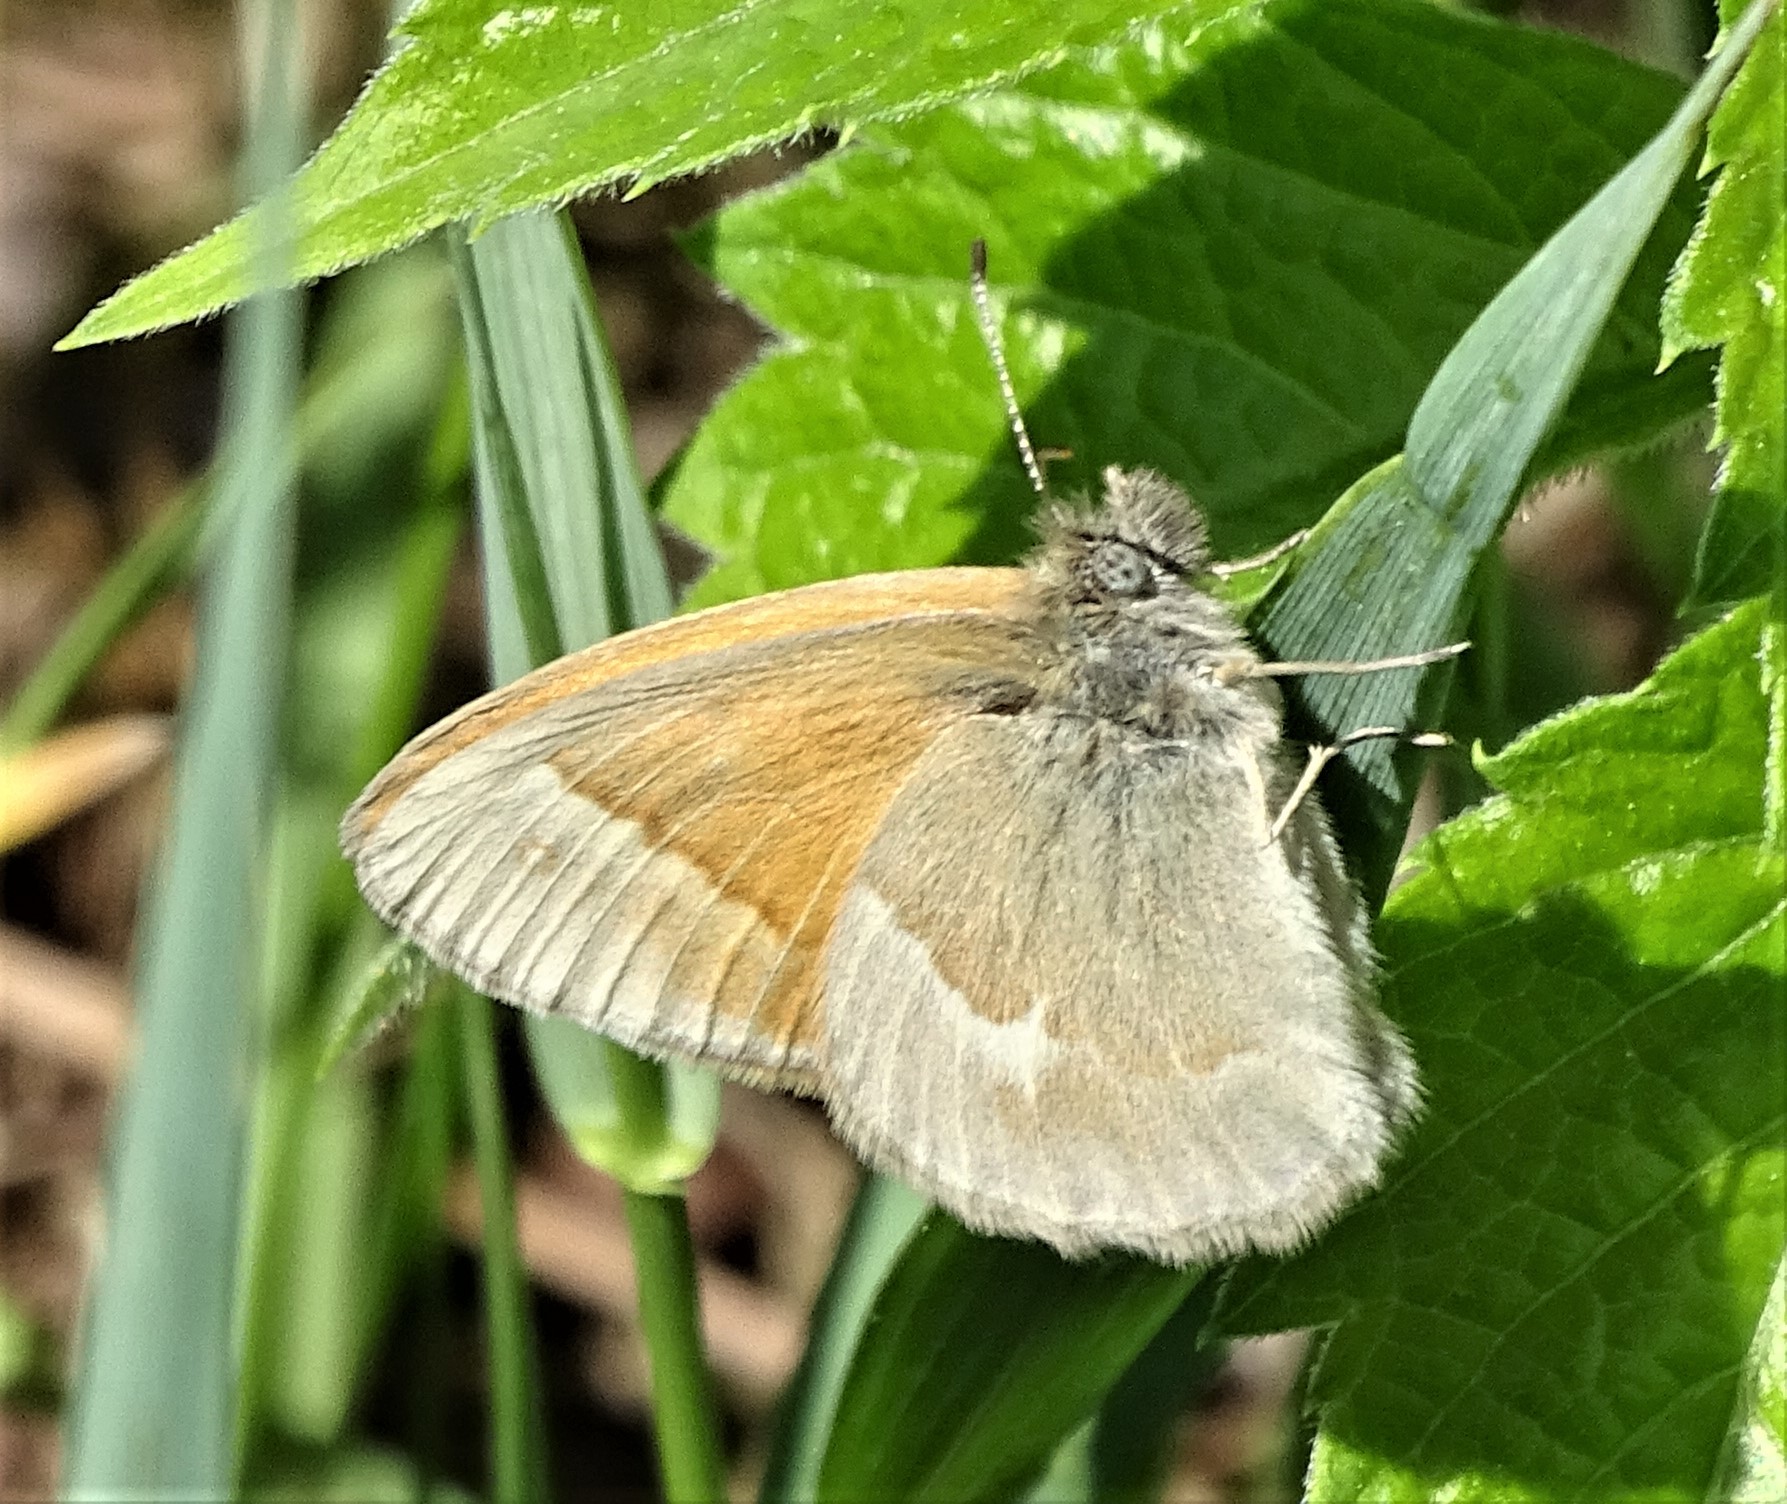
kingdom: Animalia
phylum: Arthropoda
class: Insecta
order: Lepidoptera
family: Nymphalidae
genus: Coenonympha
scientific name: Coenonympha california
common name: Common ringlet
